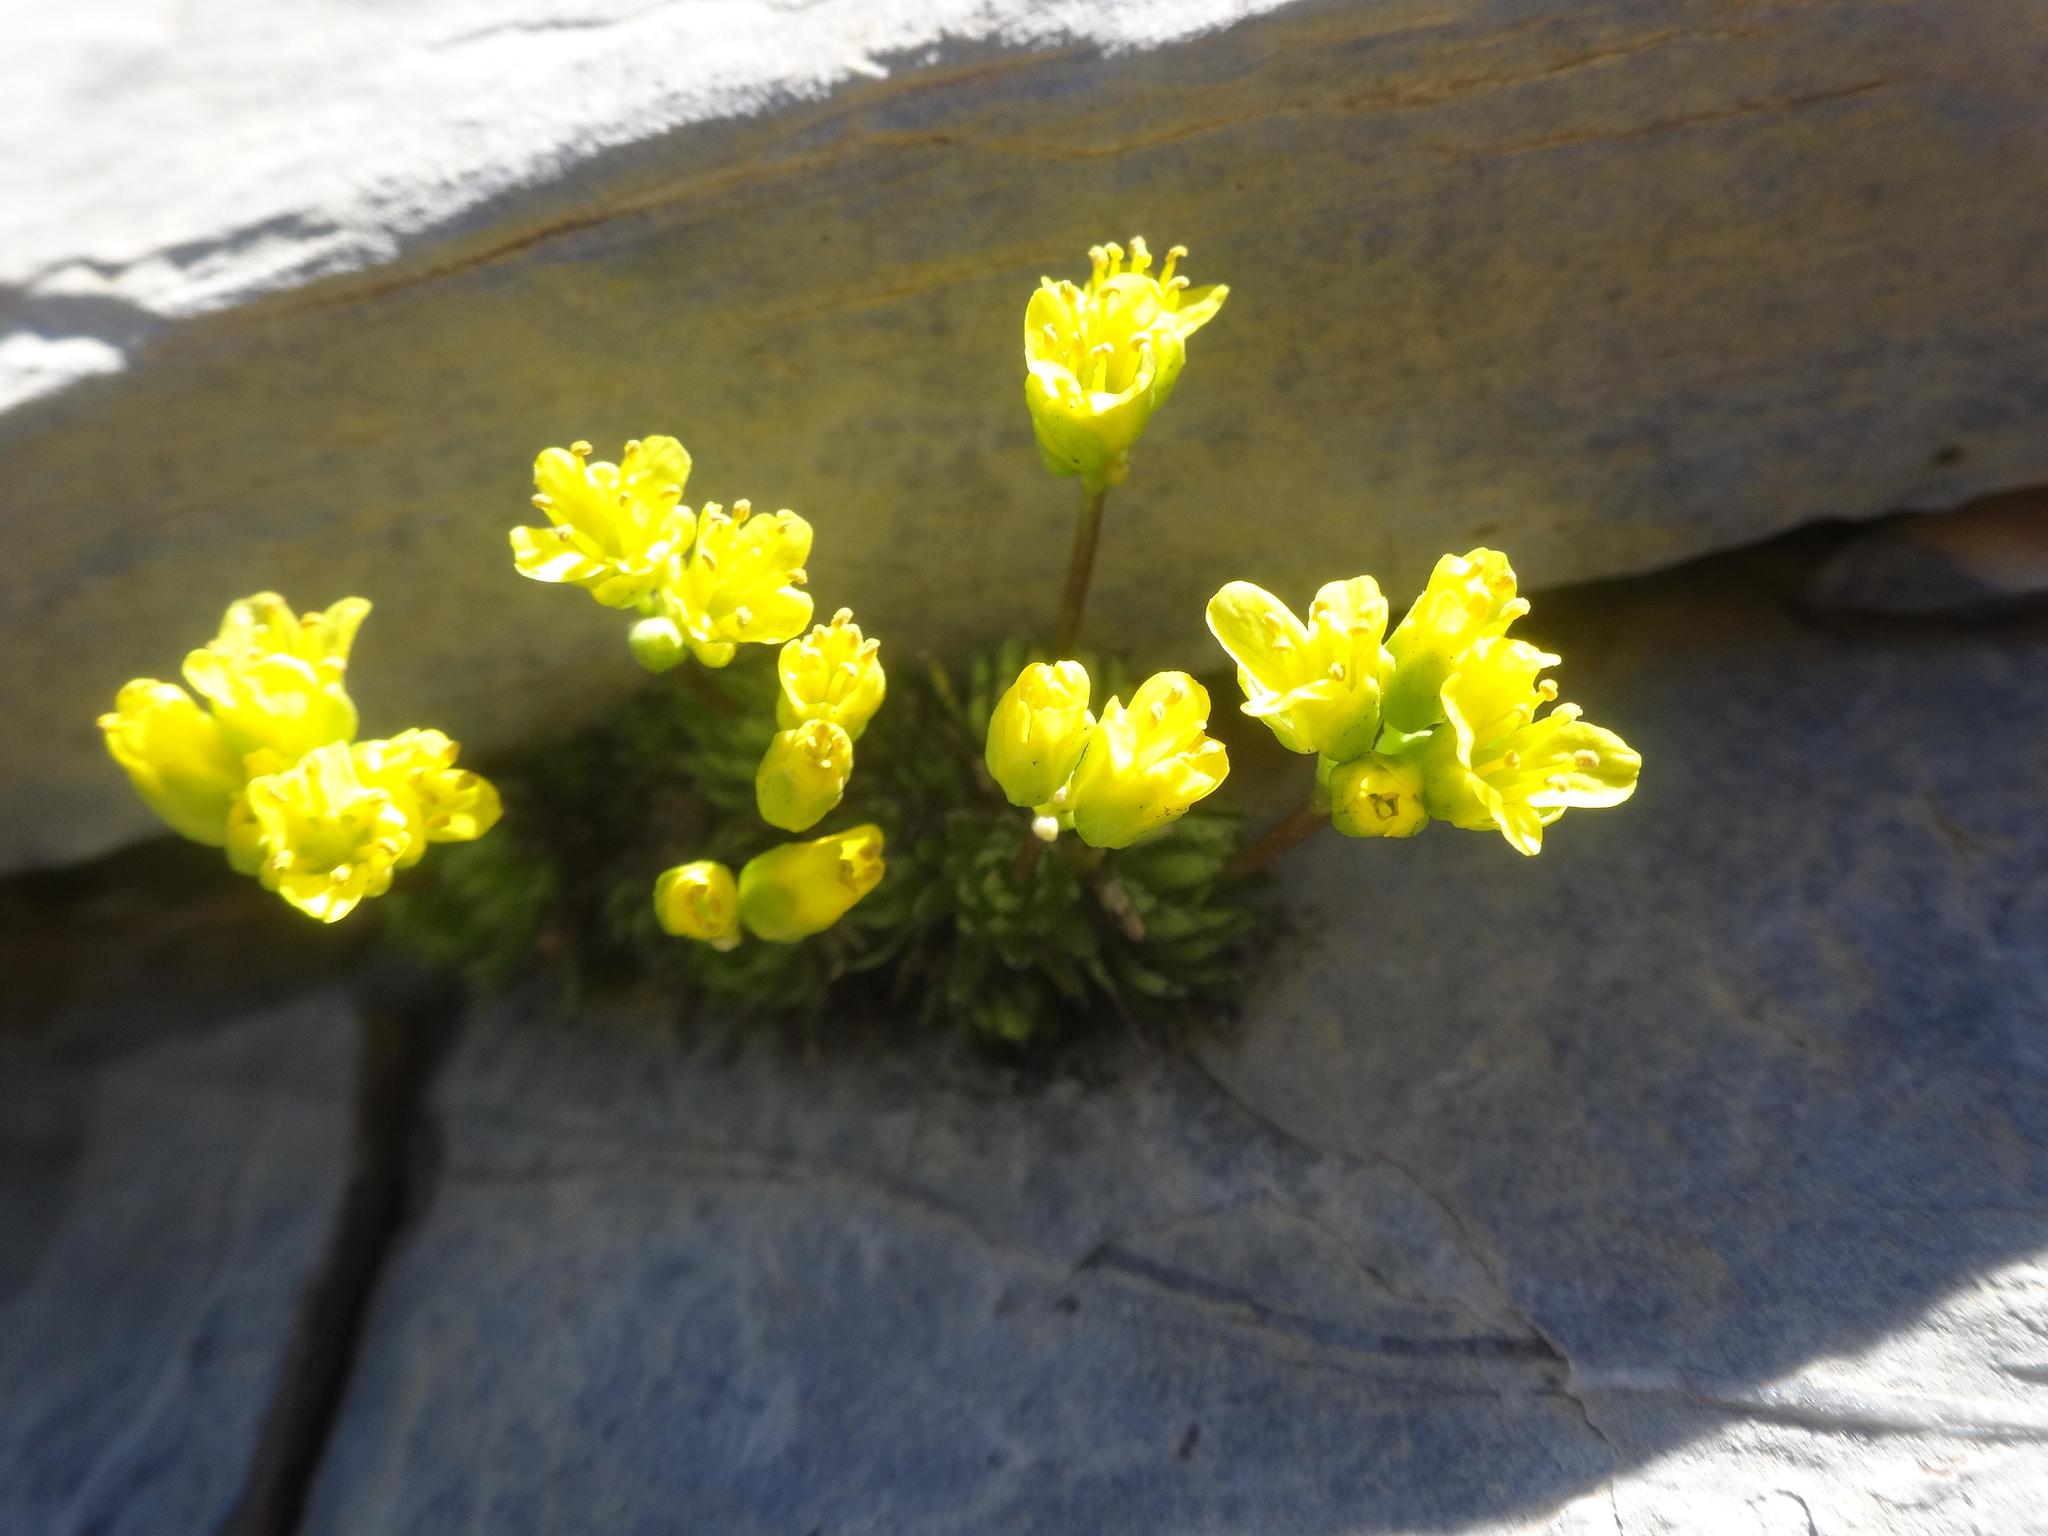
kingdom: Plantae
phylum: Tracheophyta
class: Magnoliopsida
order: Brassicales
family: Brassicaceae
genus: Draba
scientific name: Draba aizoides
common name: Yellow whitlowgrass
